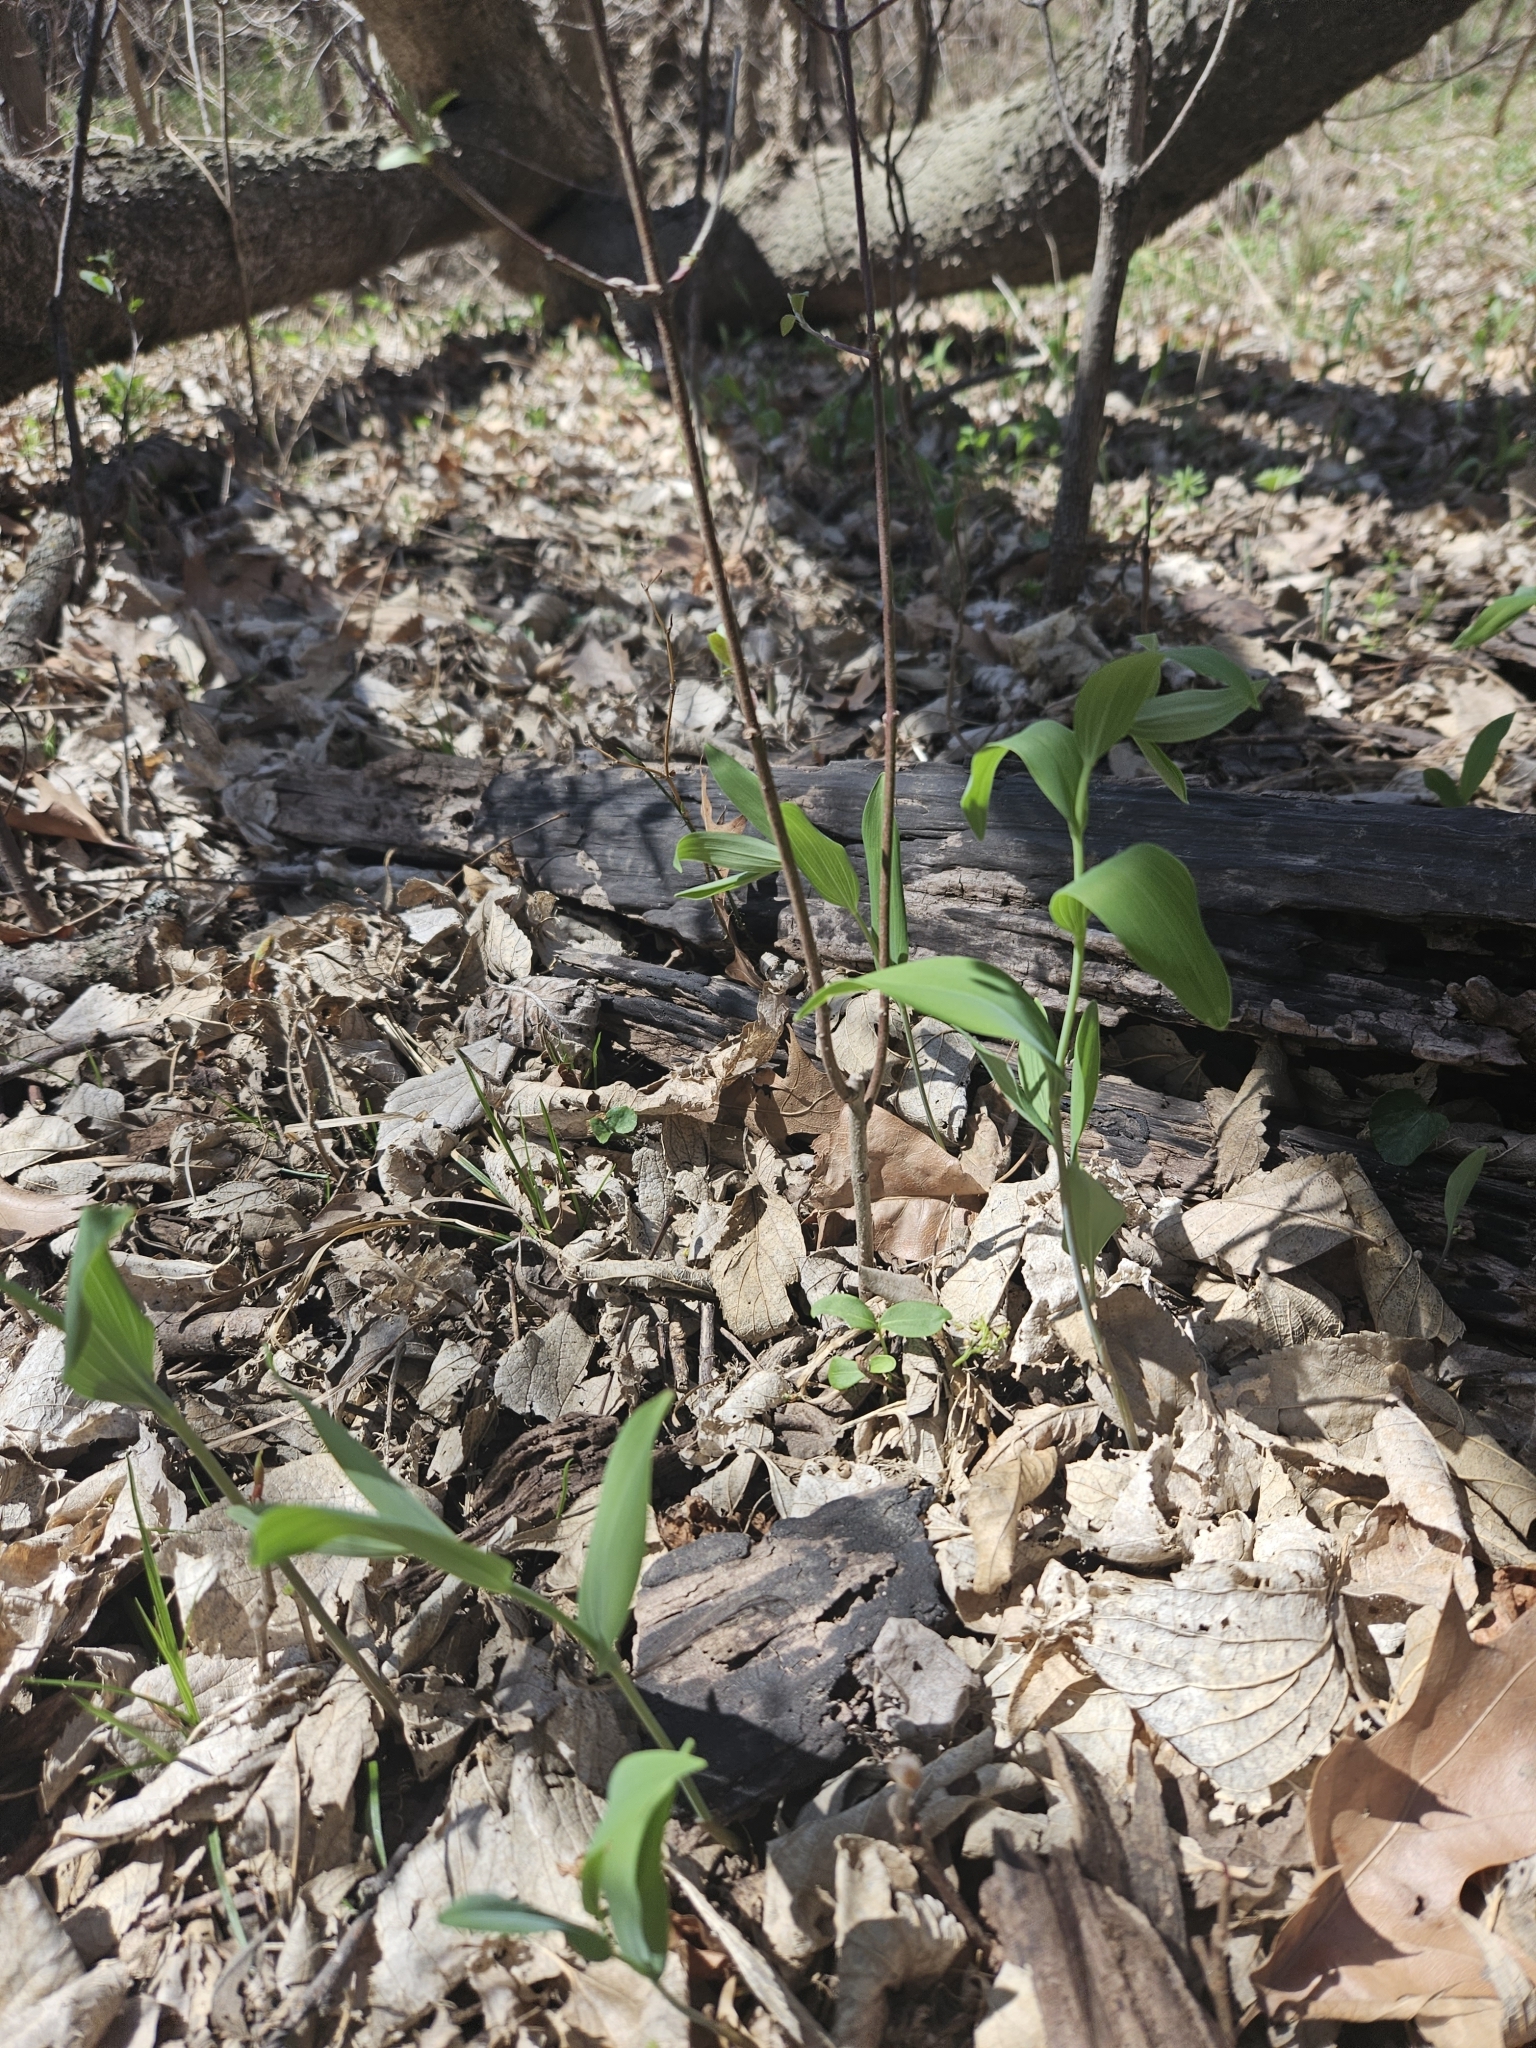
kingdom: Plantae
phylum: Tracheophyta
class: Liliopsida
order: Asparagales
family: Asparagaceae
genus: Polygonatum
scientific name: Polygonatum biflorum
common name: American solomon's-seal
